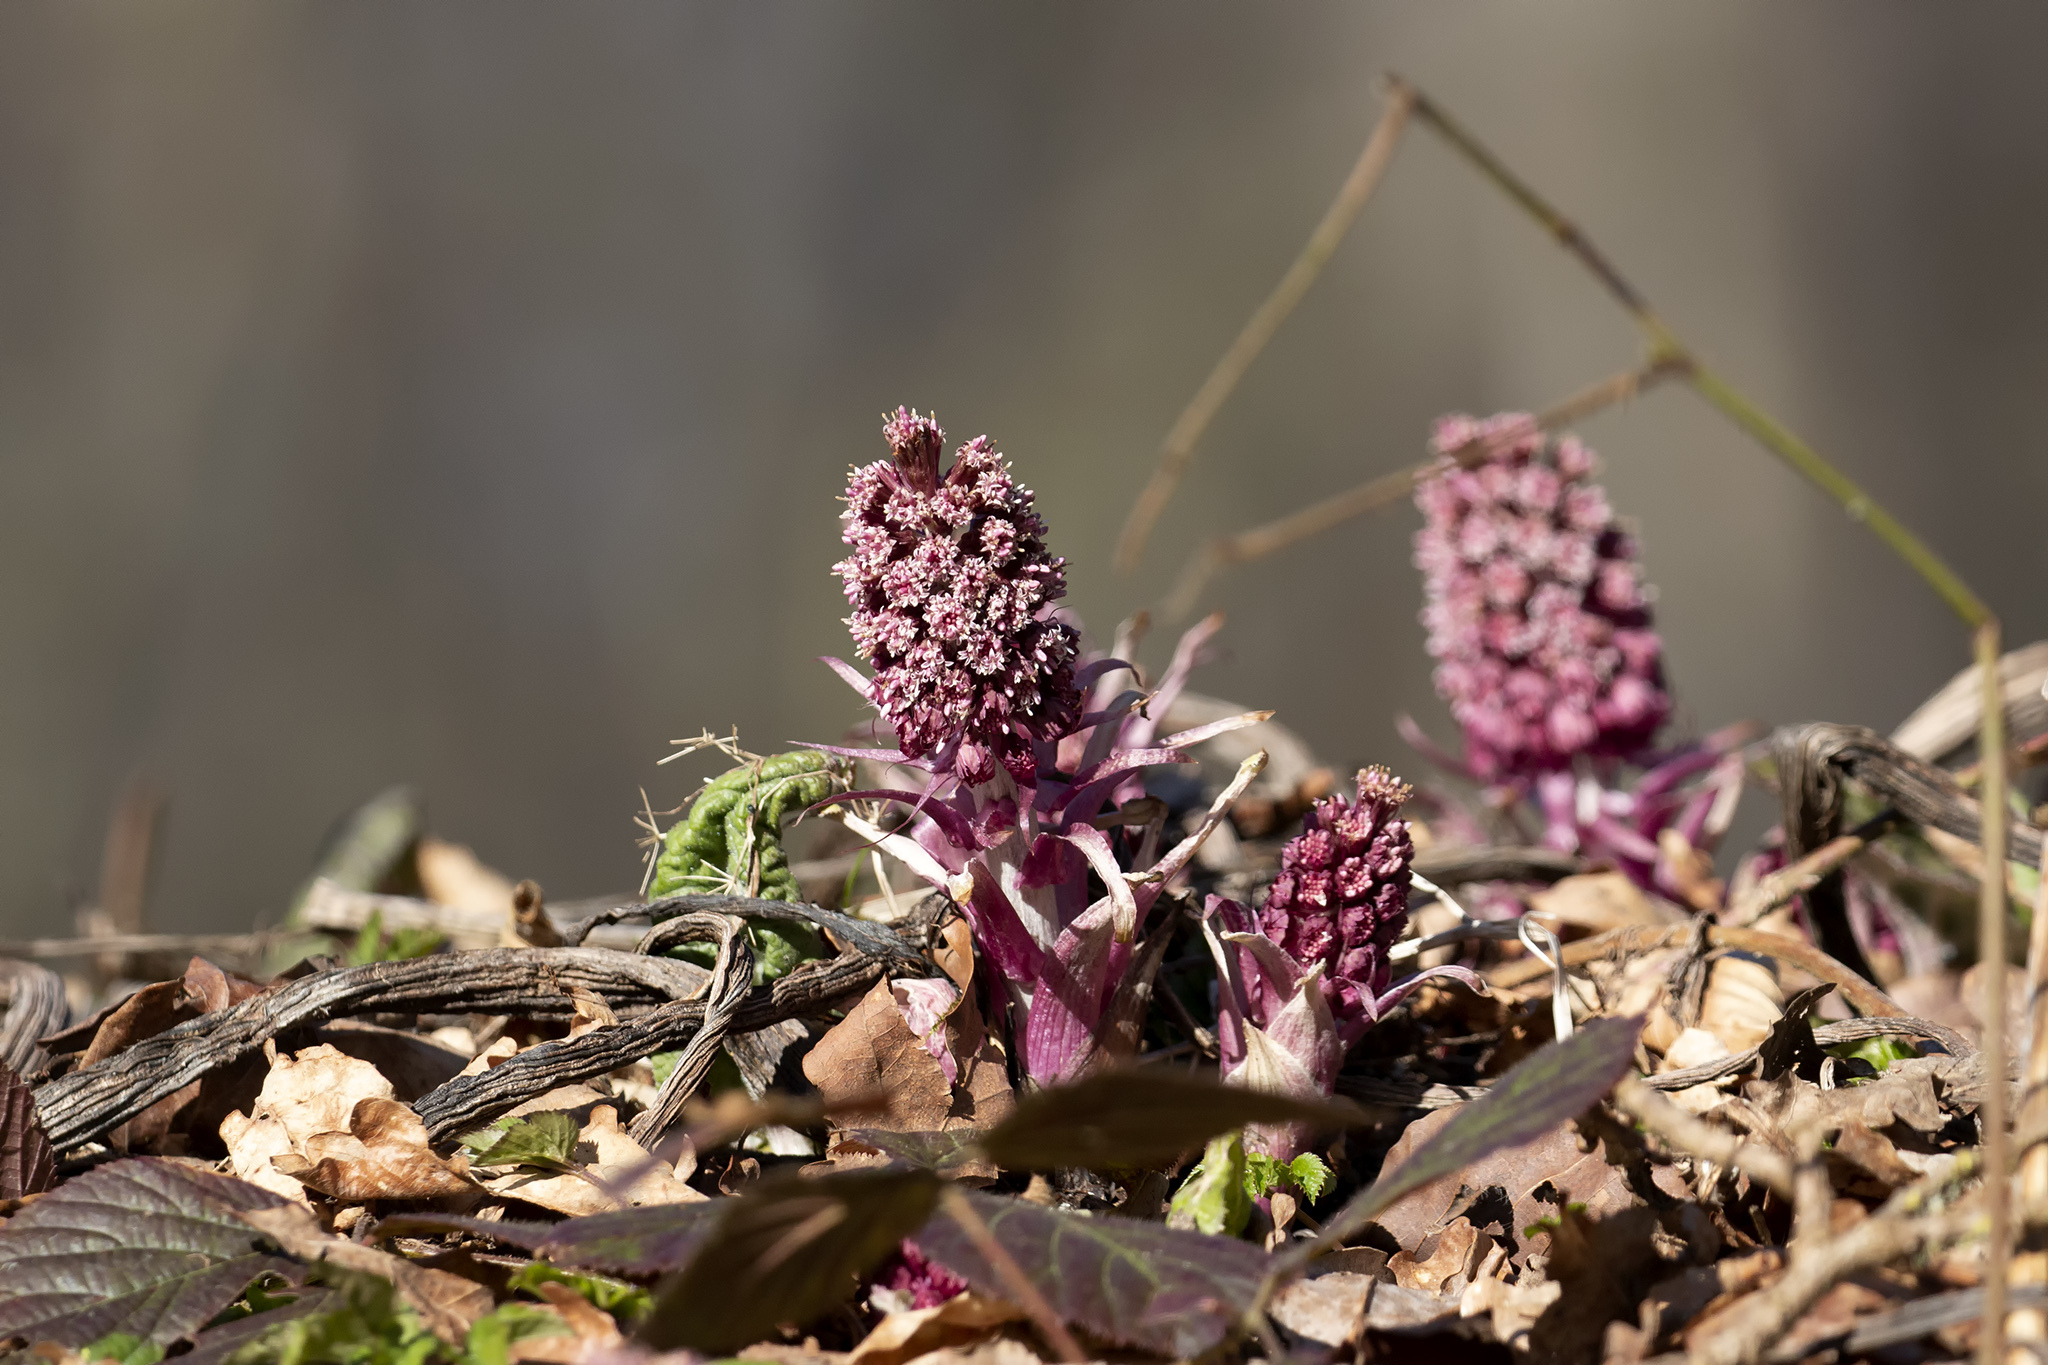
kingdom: Plantae
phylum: Tracheophyta
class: Magnoliopsida
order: Asterales
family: Asteraceae
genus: Petasites
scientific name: Petasites hybridus
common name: Butterbur
